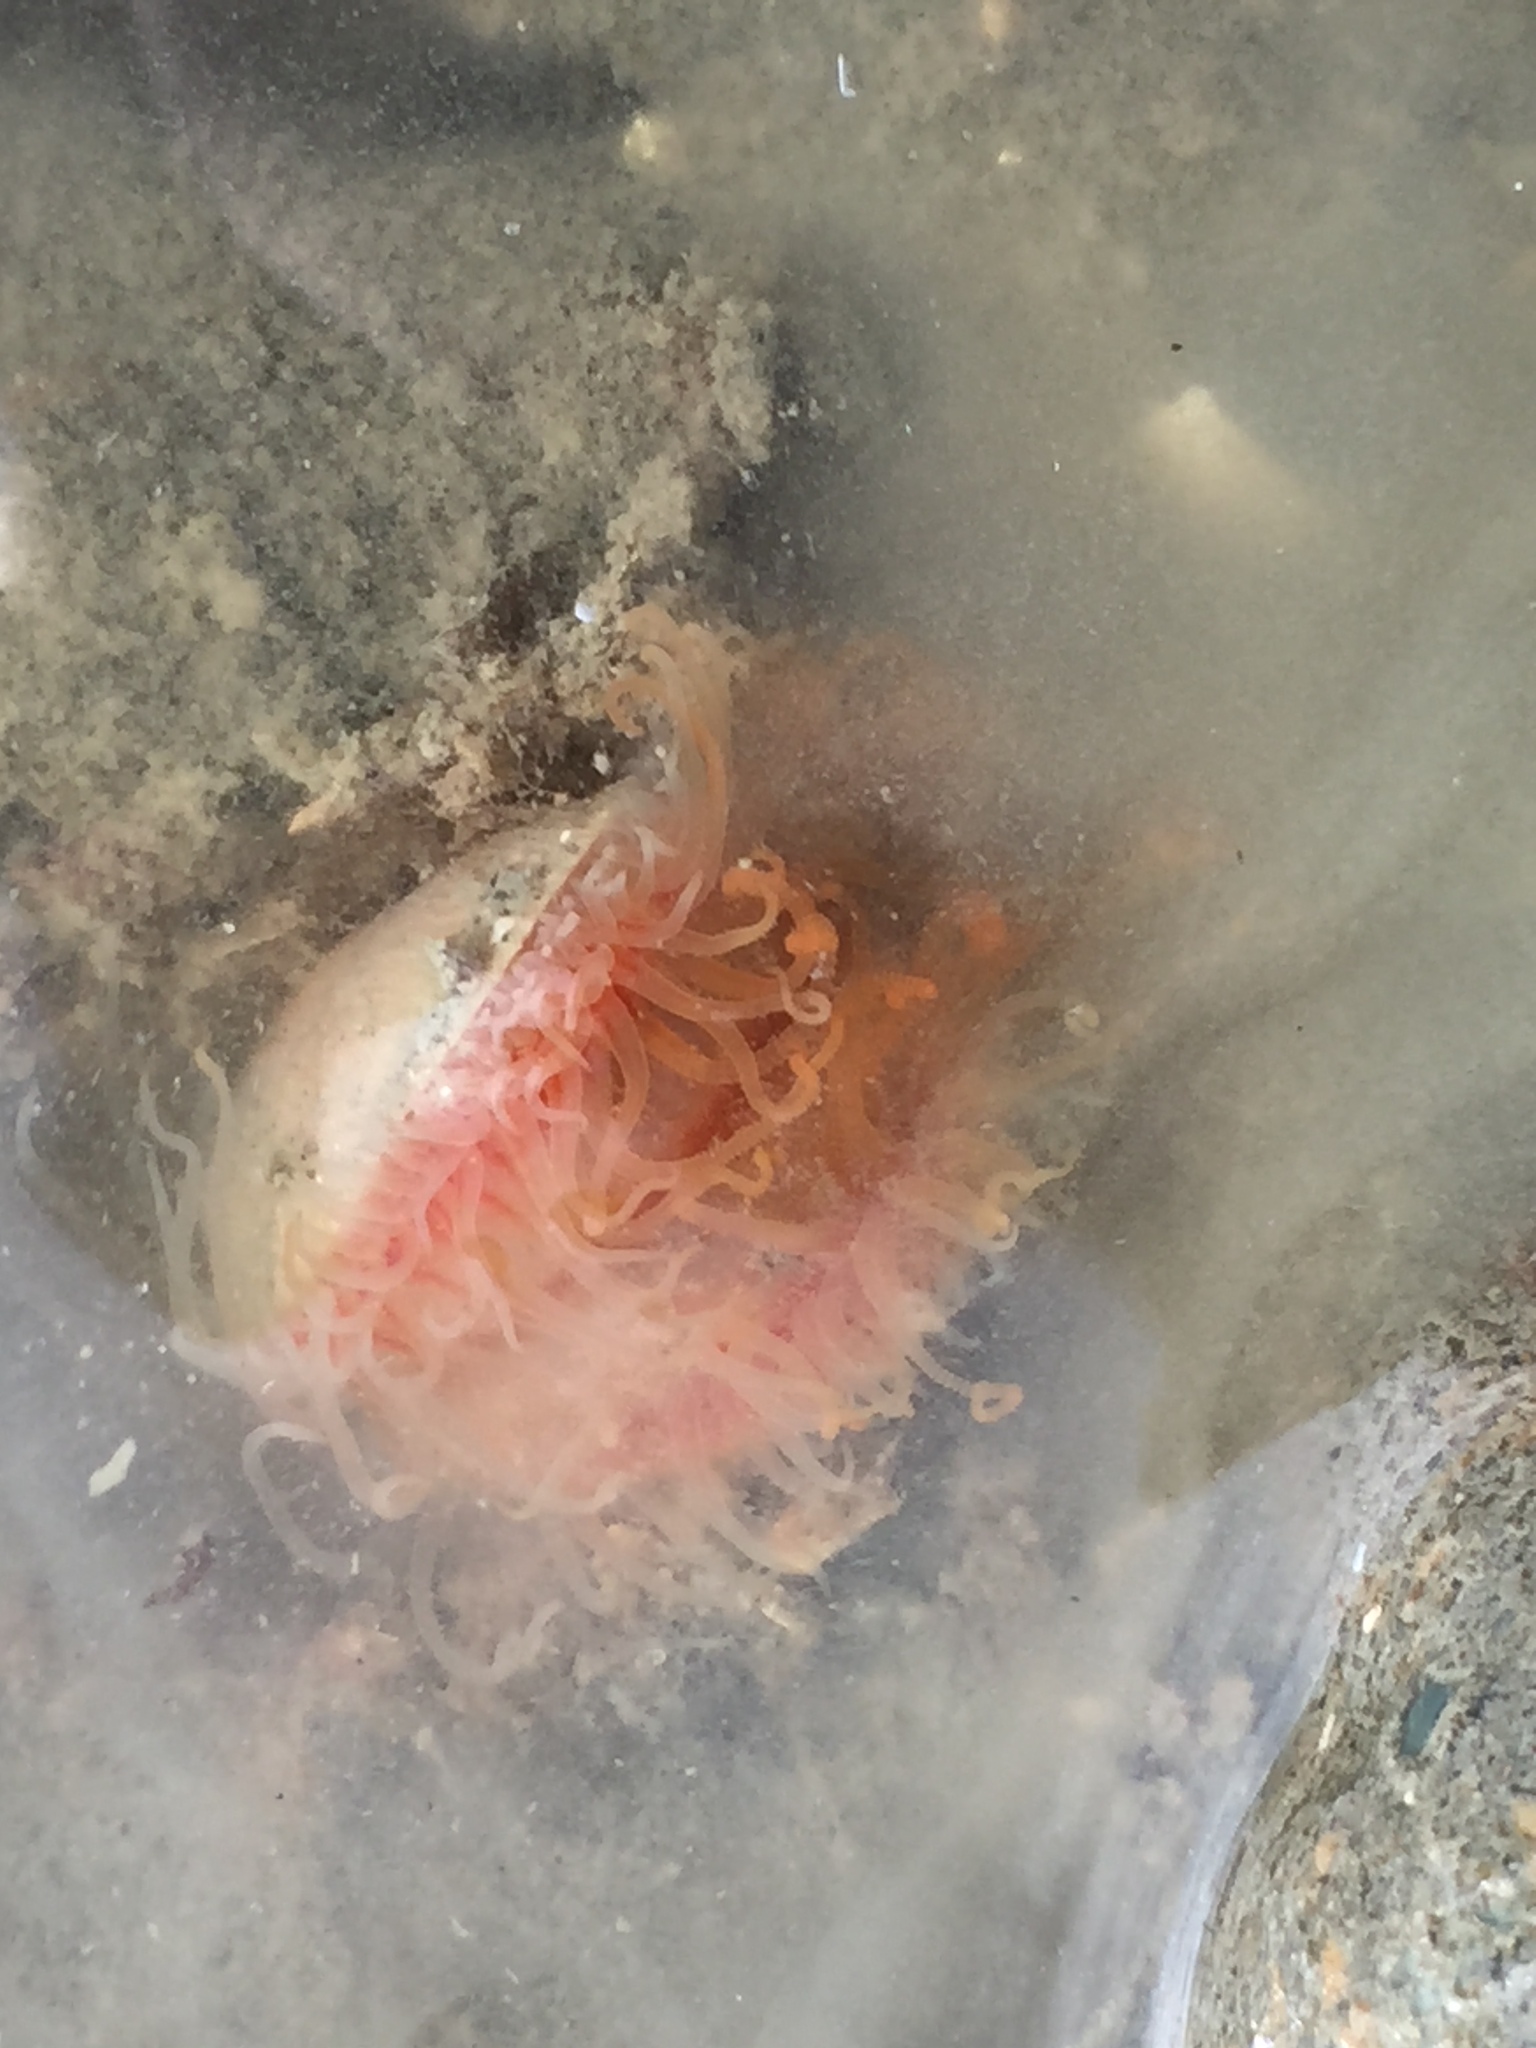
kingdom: Animalia
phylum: Mollusca
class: Bivalvia
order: Limida
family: Limidae
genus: Limaria
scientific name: Limaria orientalis
